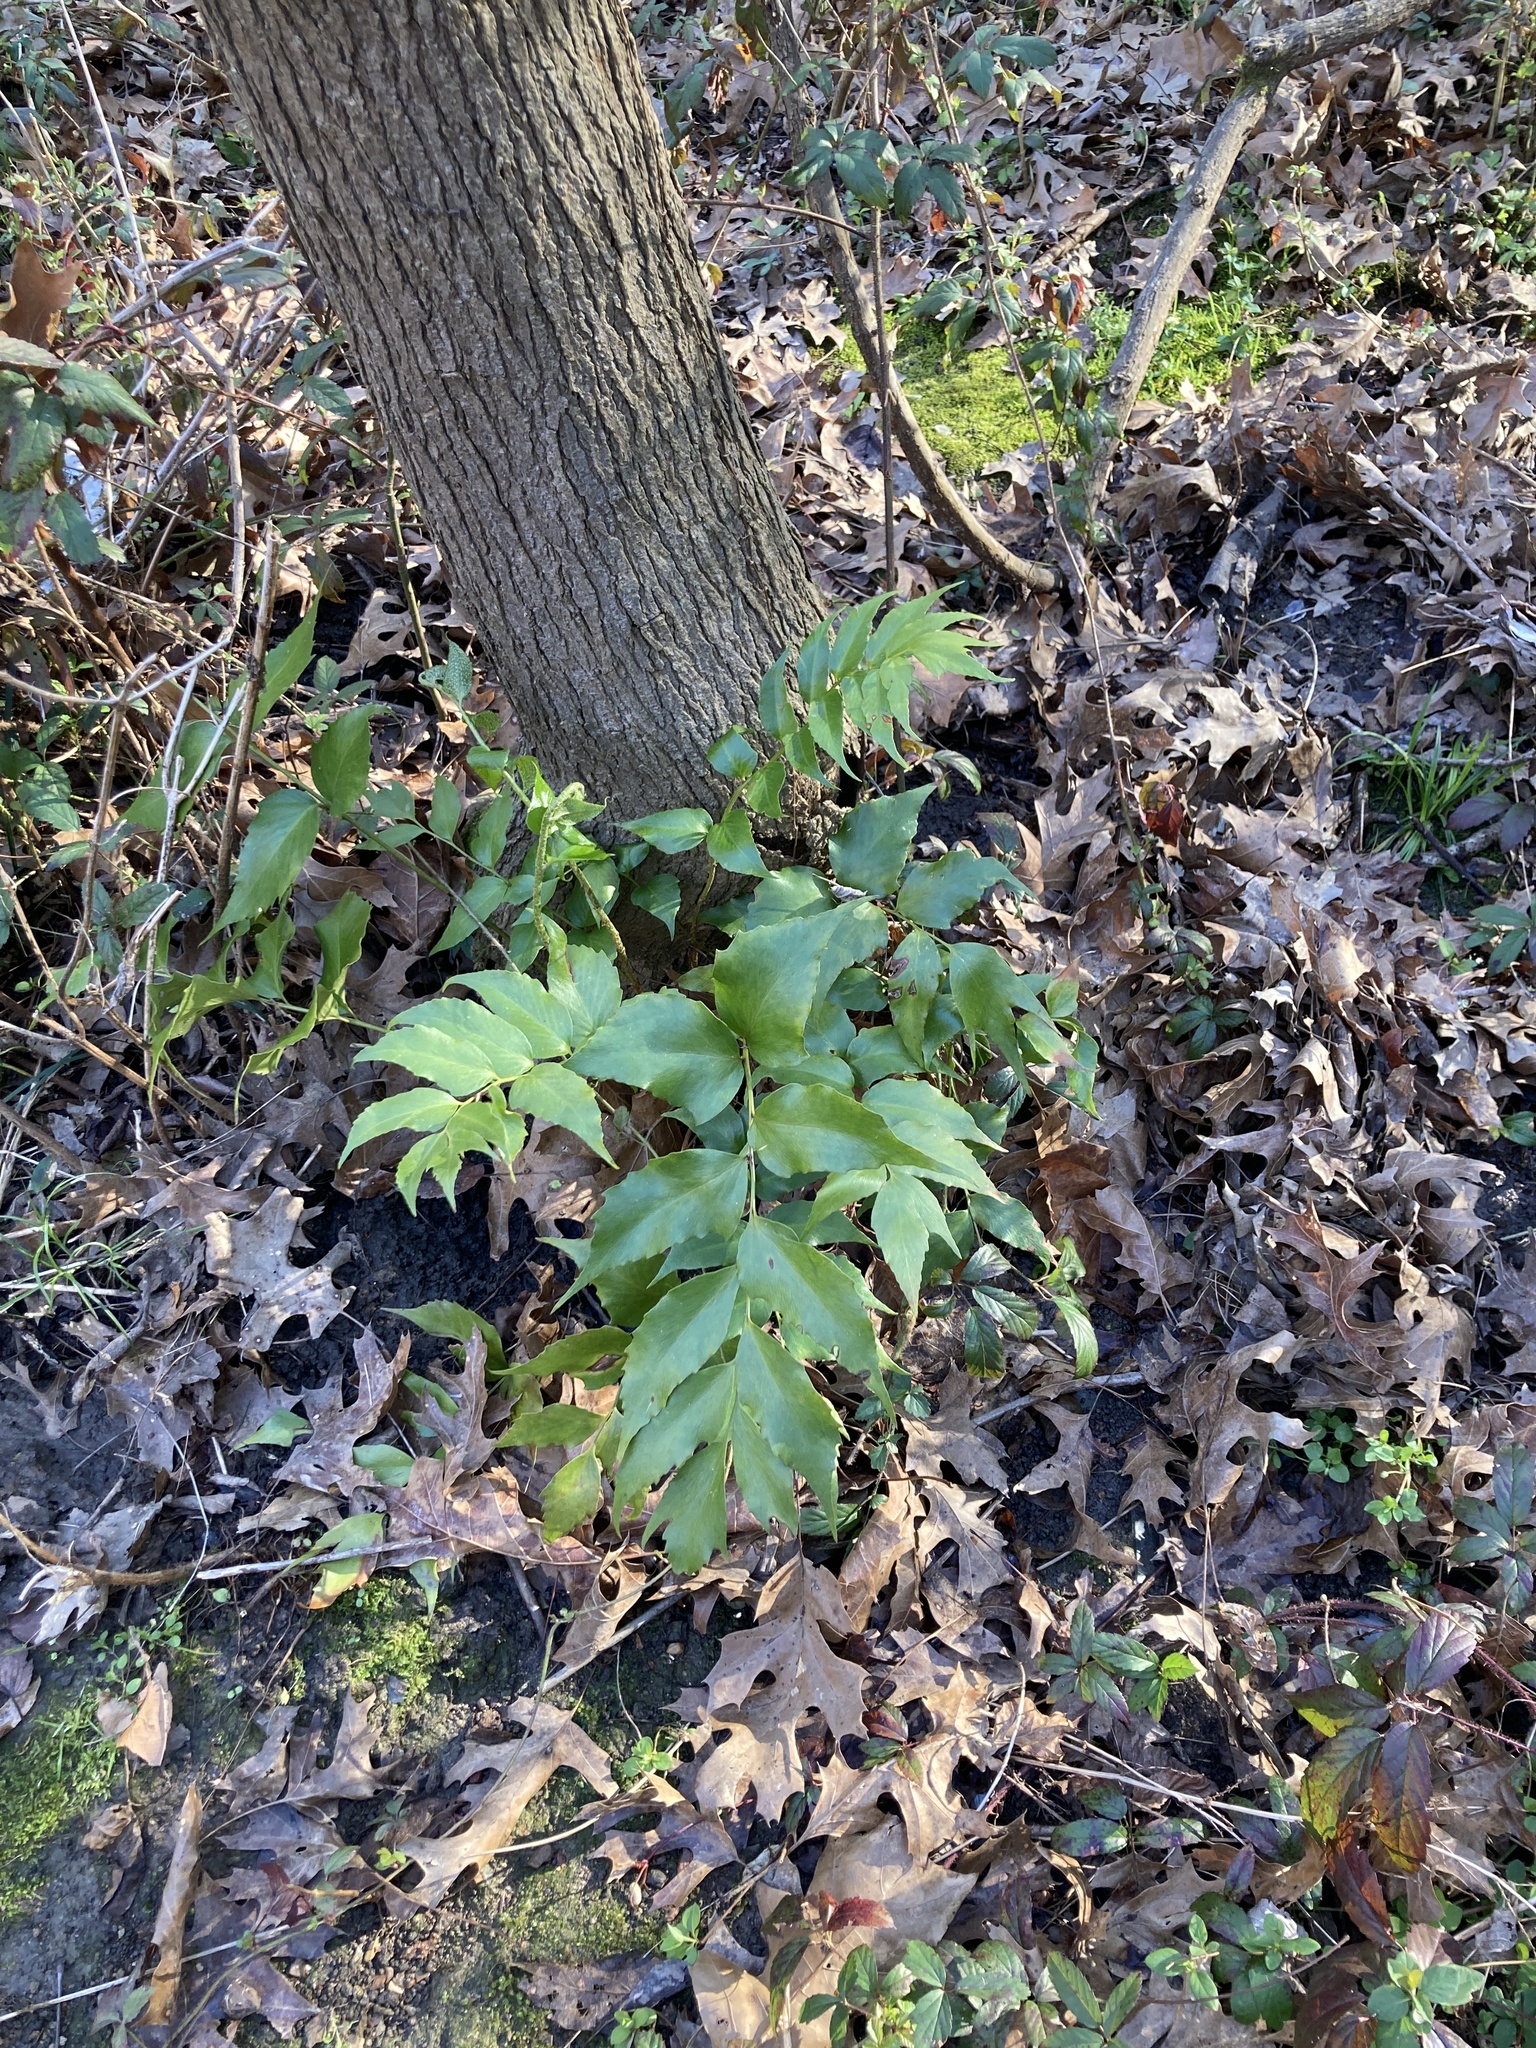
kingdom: Plantae
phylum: Tracheophyta
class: Polypodiopsida
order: Polypodiales
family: Dryopteridaceae
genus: Cyrtomium
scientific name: Cyrtomium falcatum
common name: House holly-fern
